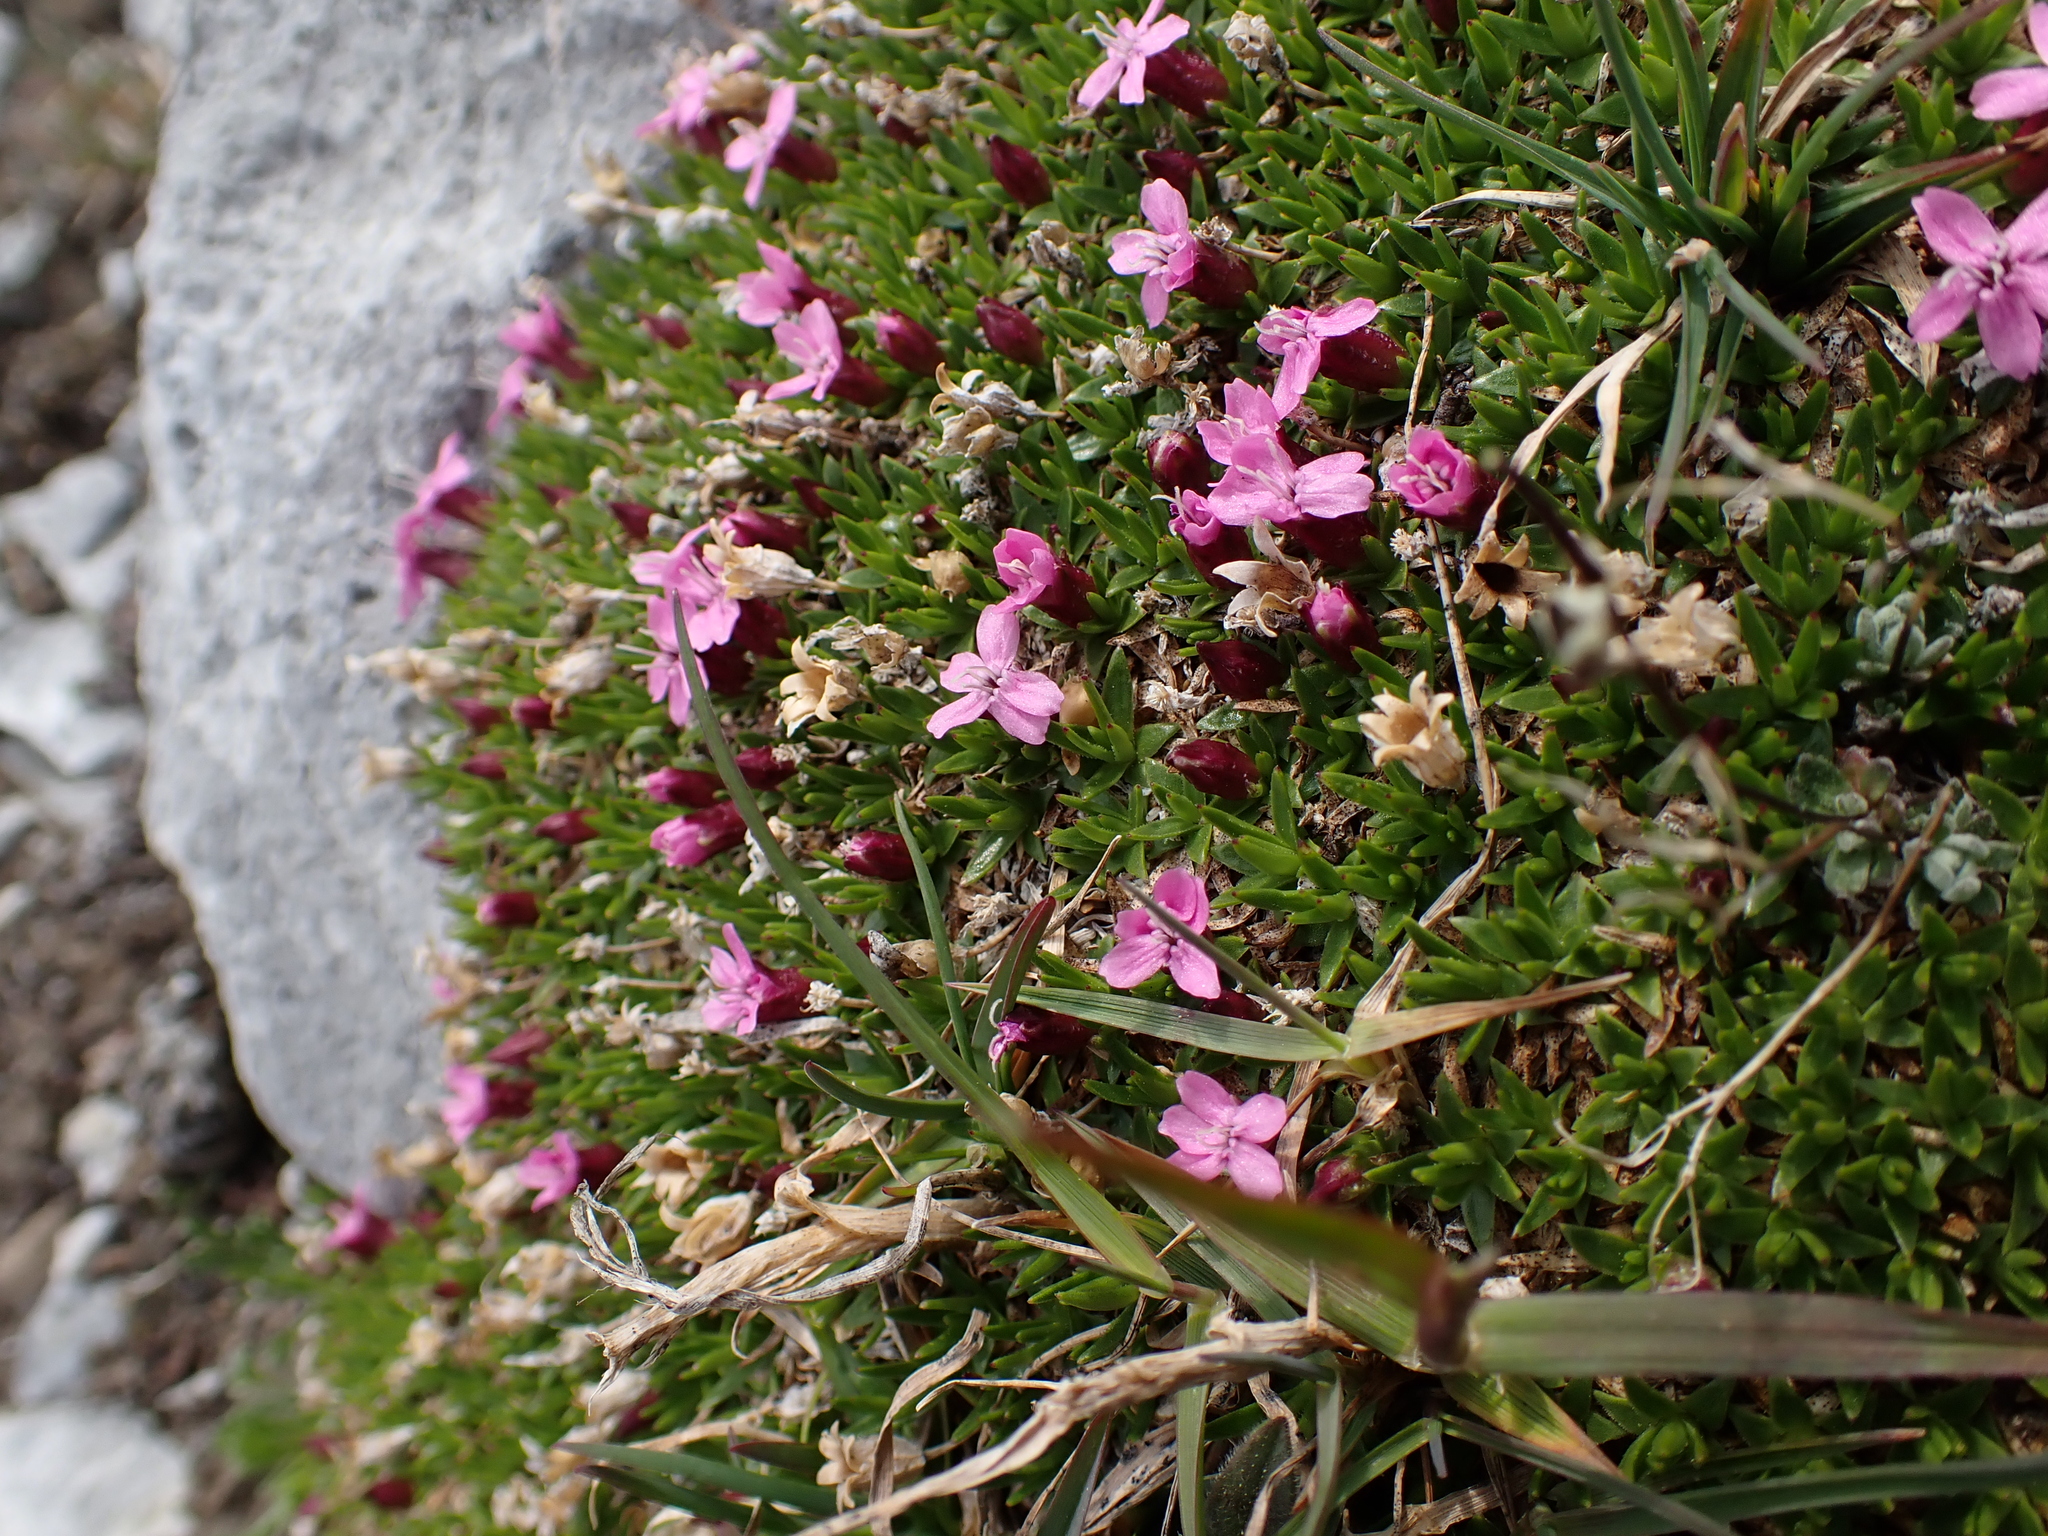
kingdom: Plantae
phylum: Tracheophyta
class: Magnoliopsida
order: Caryophyllales
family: Caryophyllaceae
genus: Silene
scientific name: Silene acaulis
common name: Moss campion
